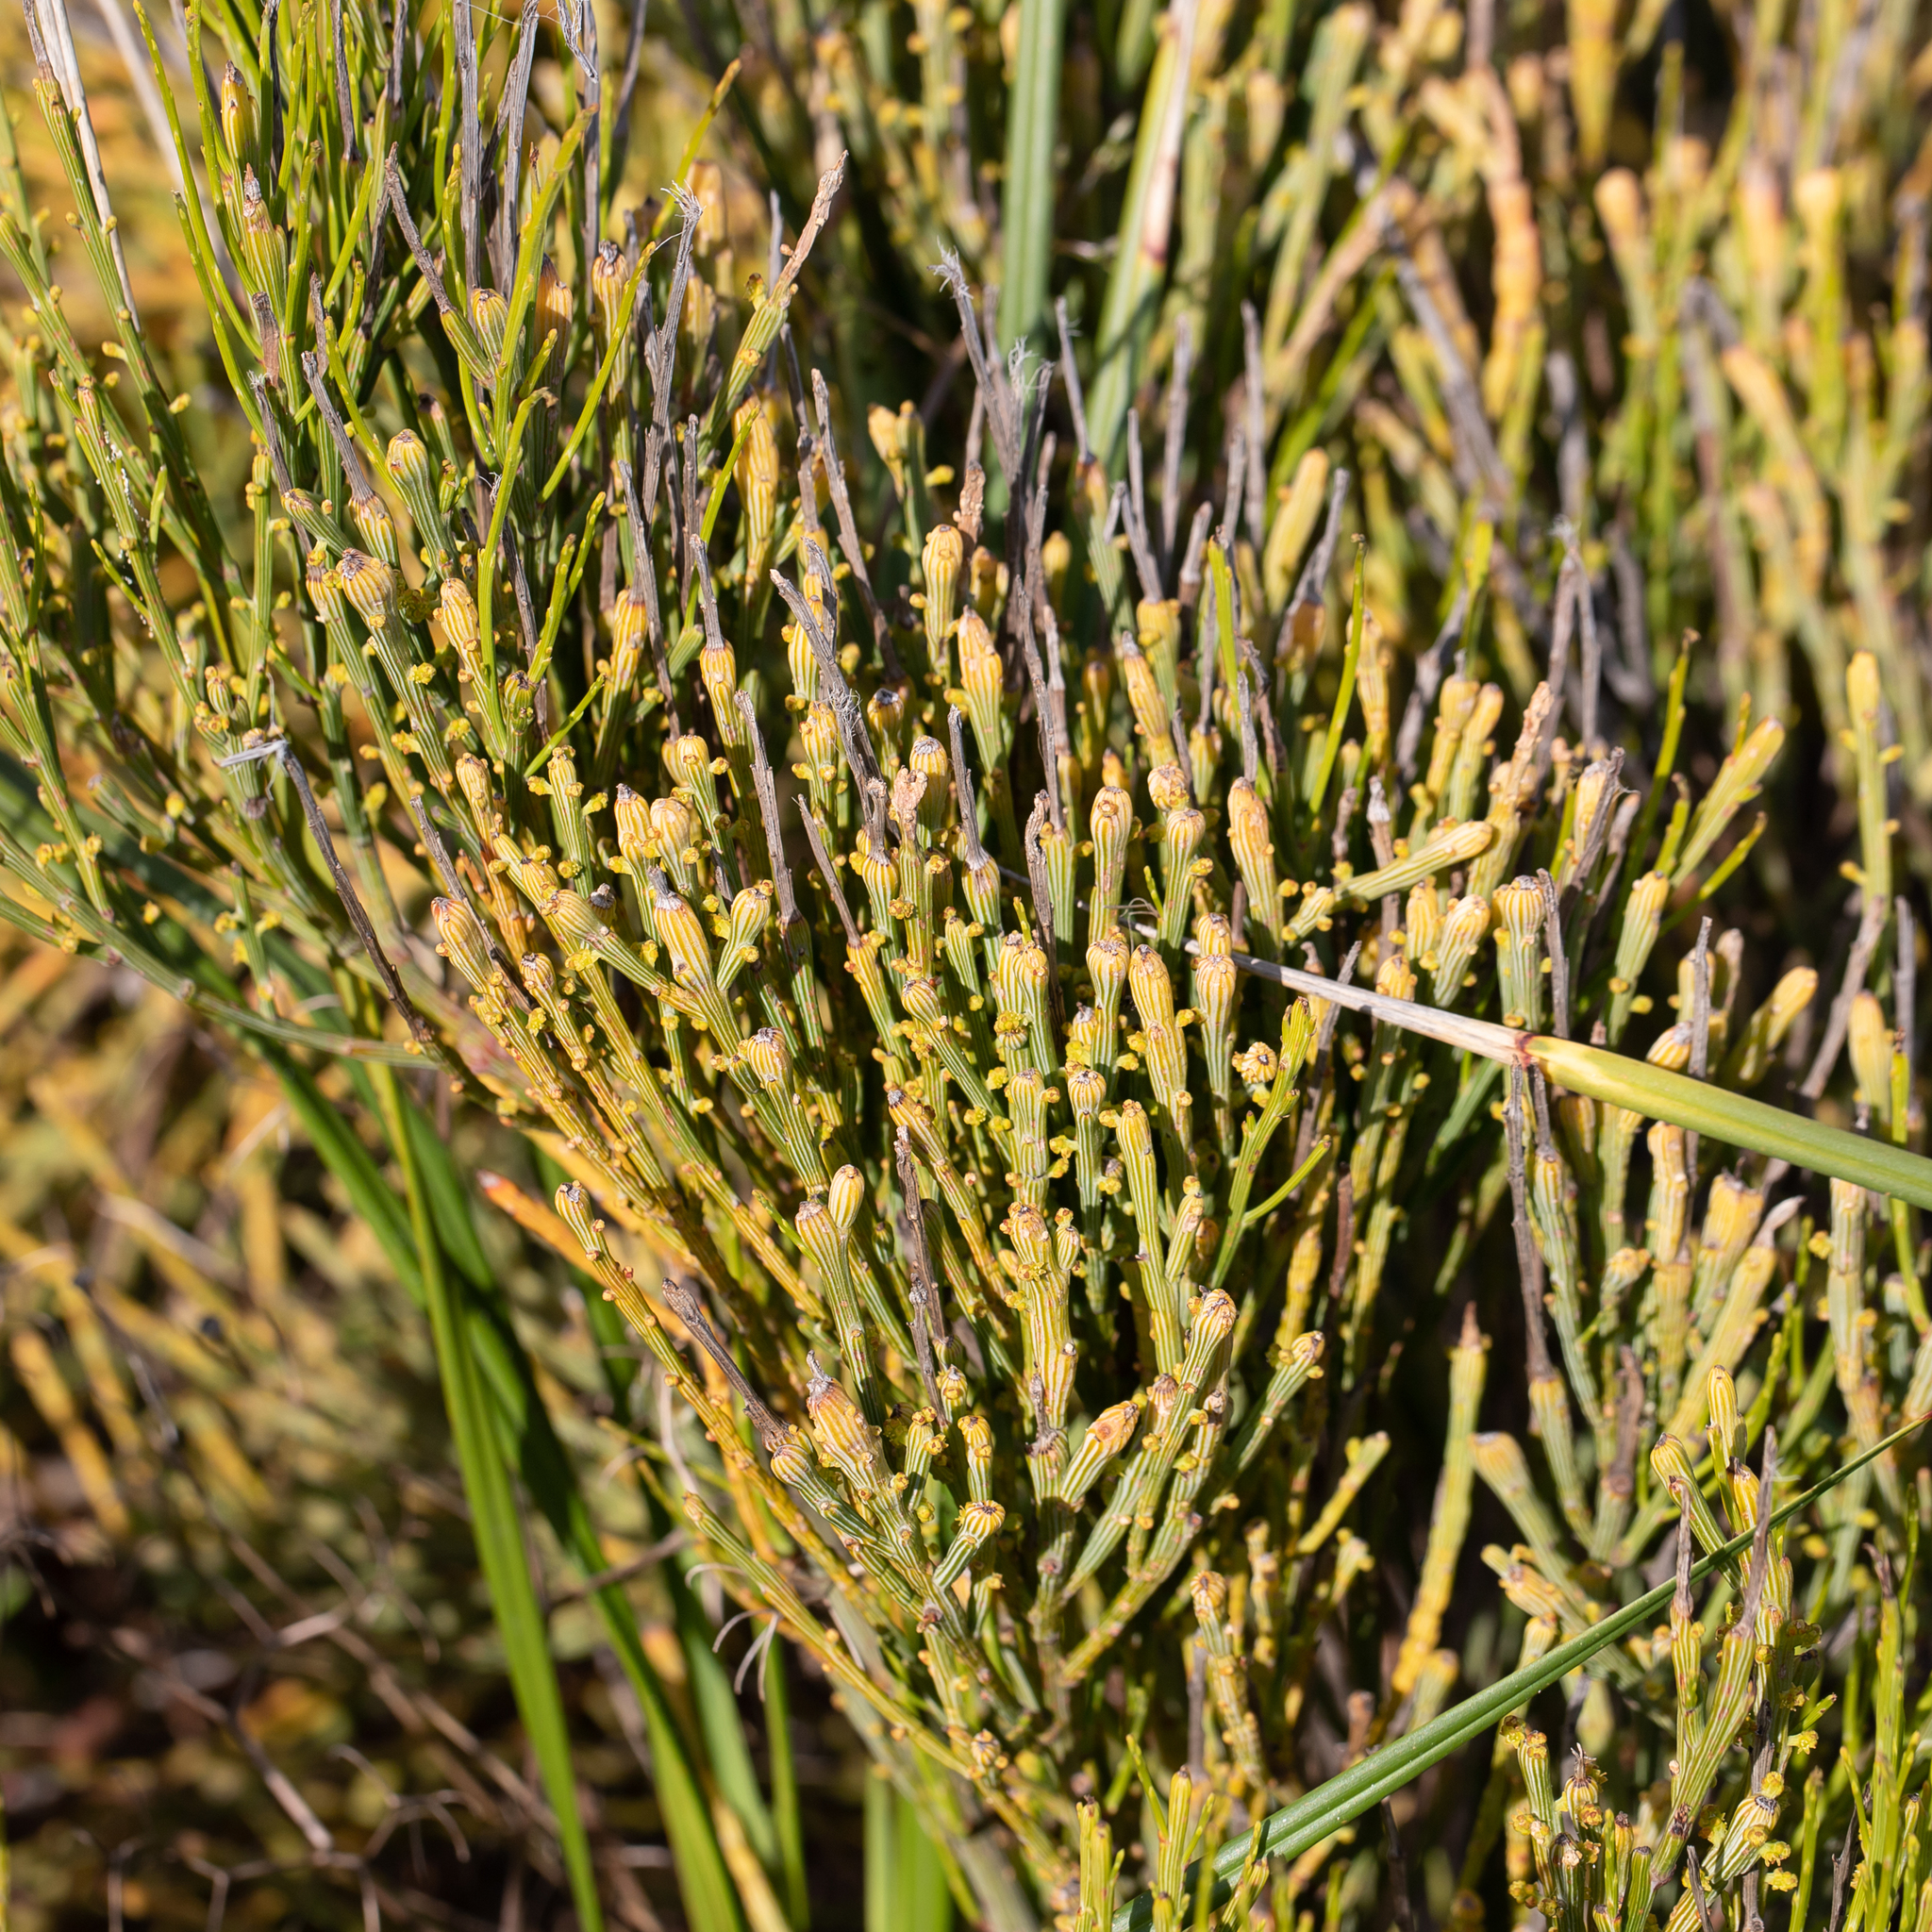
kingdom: Plantae
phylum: Tracheophyta
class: Magnoliopsida
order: Santalales
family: Santalaceae
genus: Exocarpos
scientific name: Exocarpos syrticola
